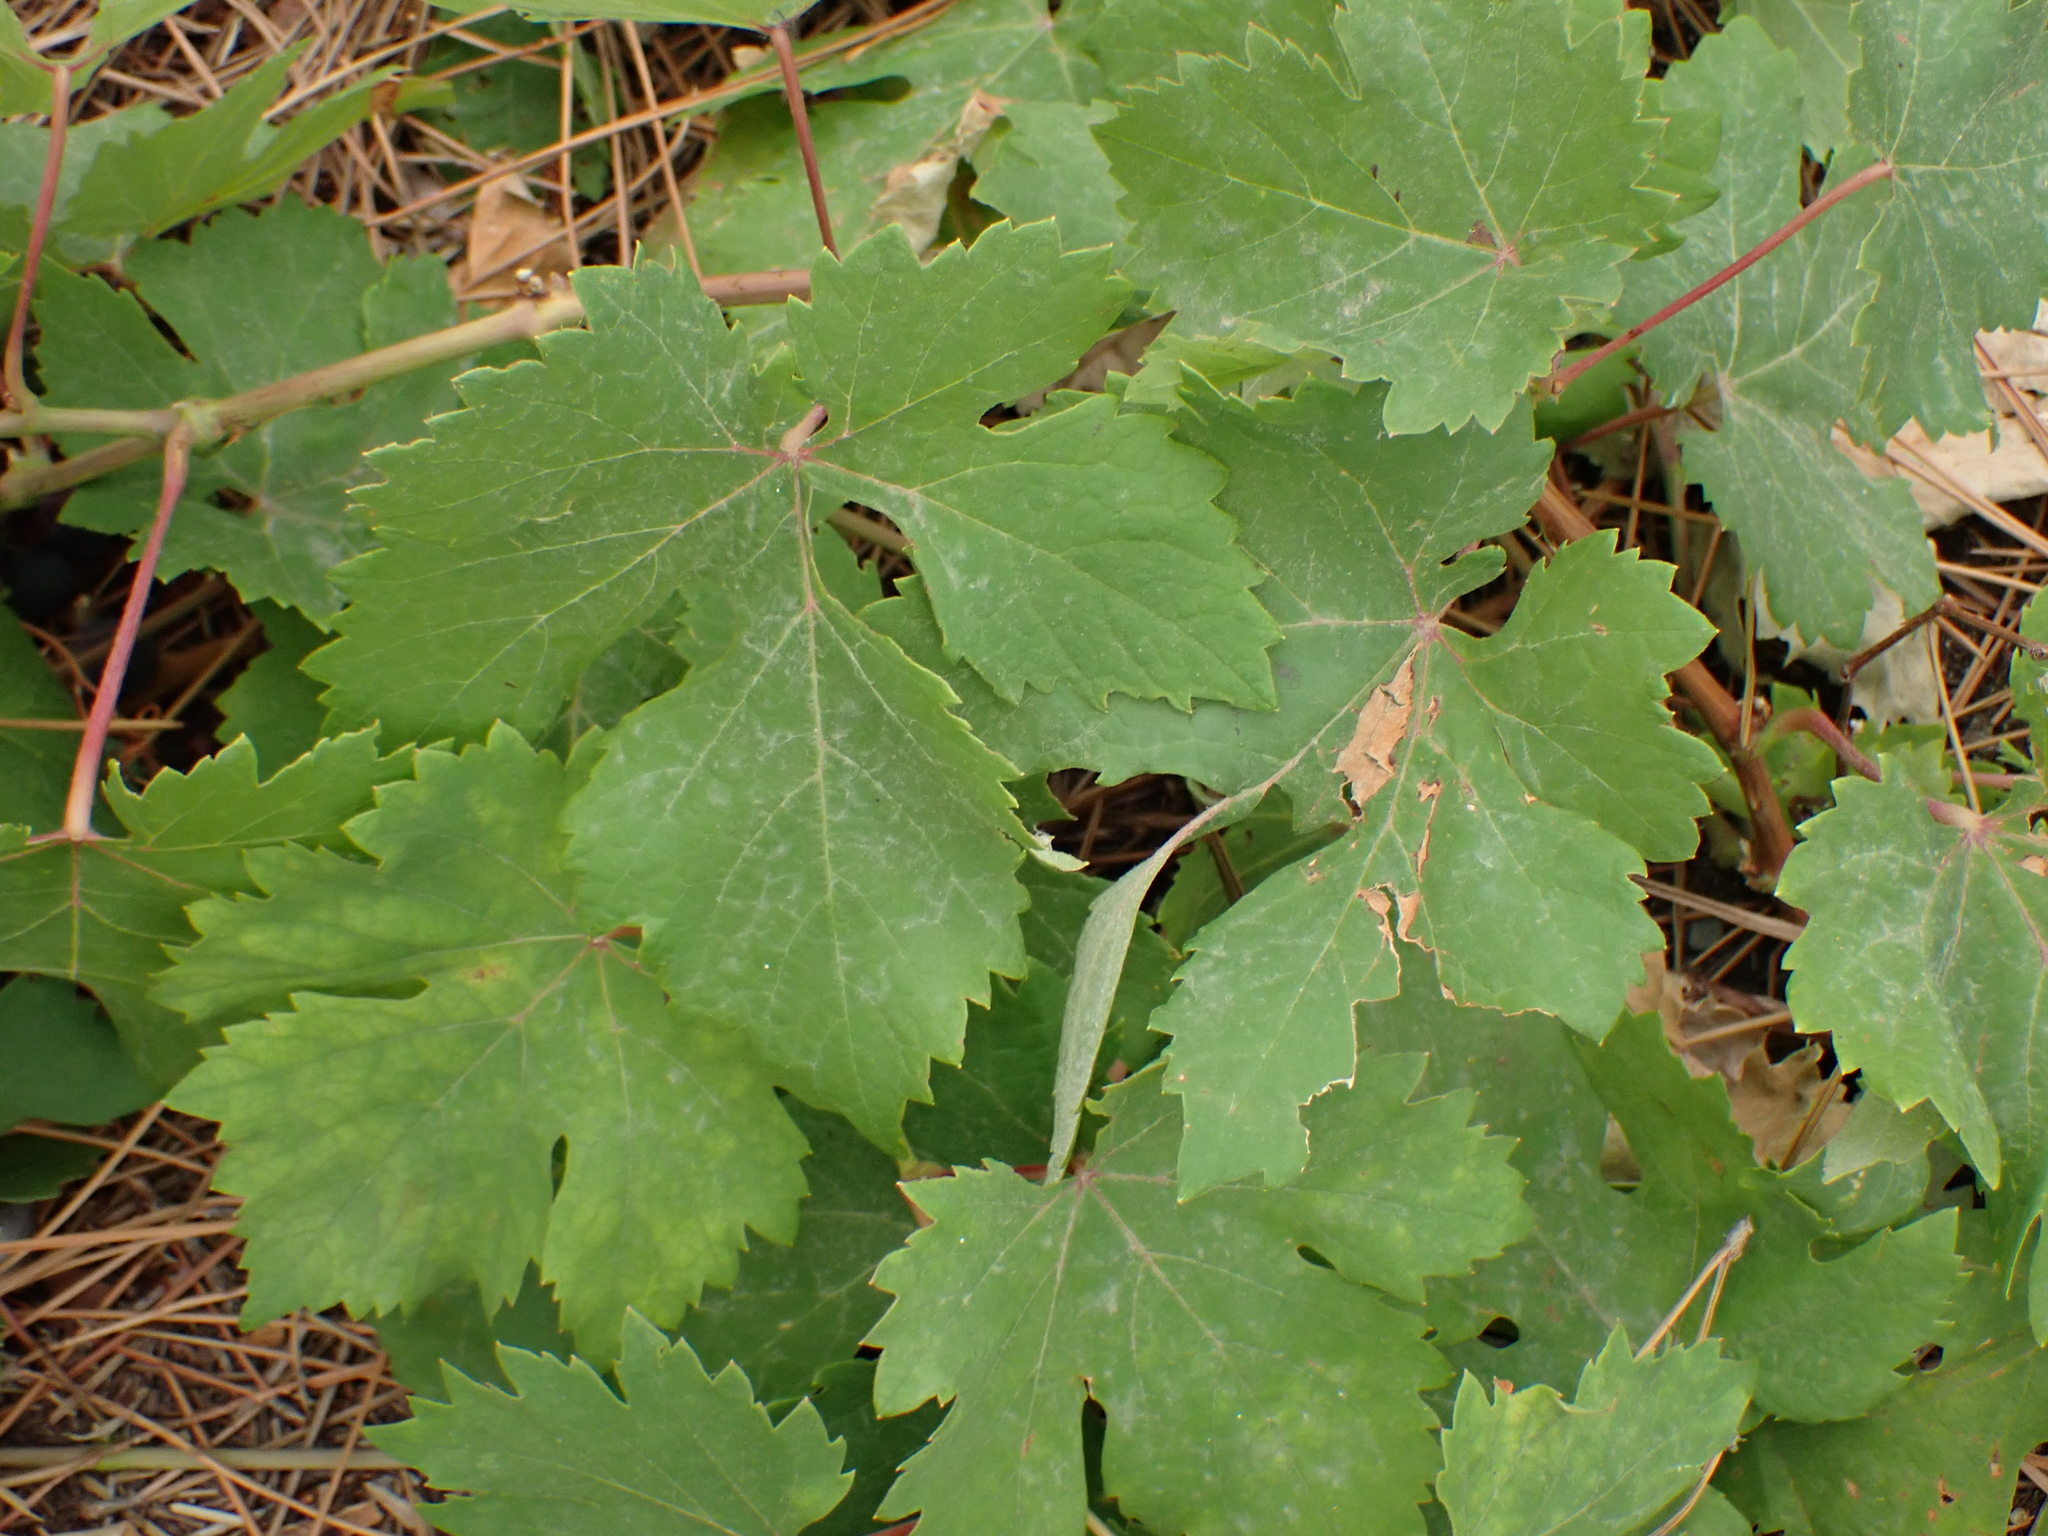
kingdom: Plantae
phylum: Tracheophyta
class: Magnoliopsida
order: Vitales
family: Vitaceae
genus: Vitis
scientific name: Vitis vinifera
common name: Grape-vine
